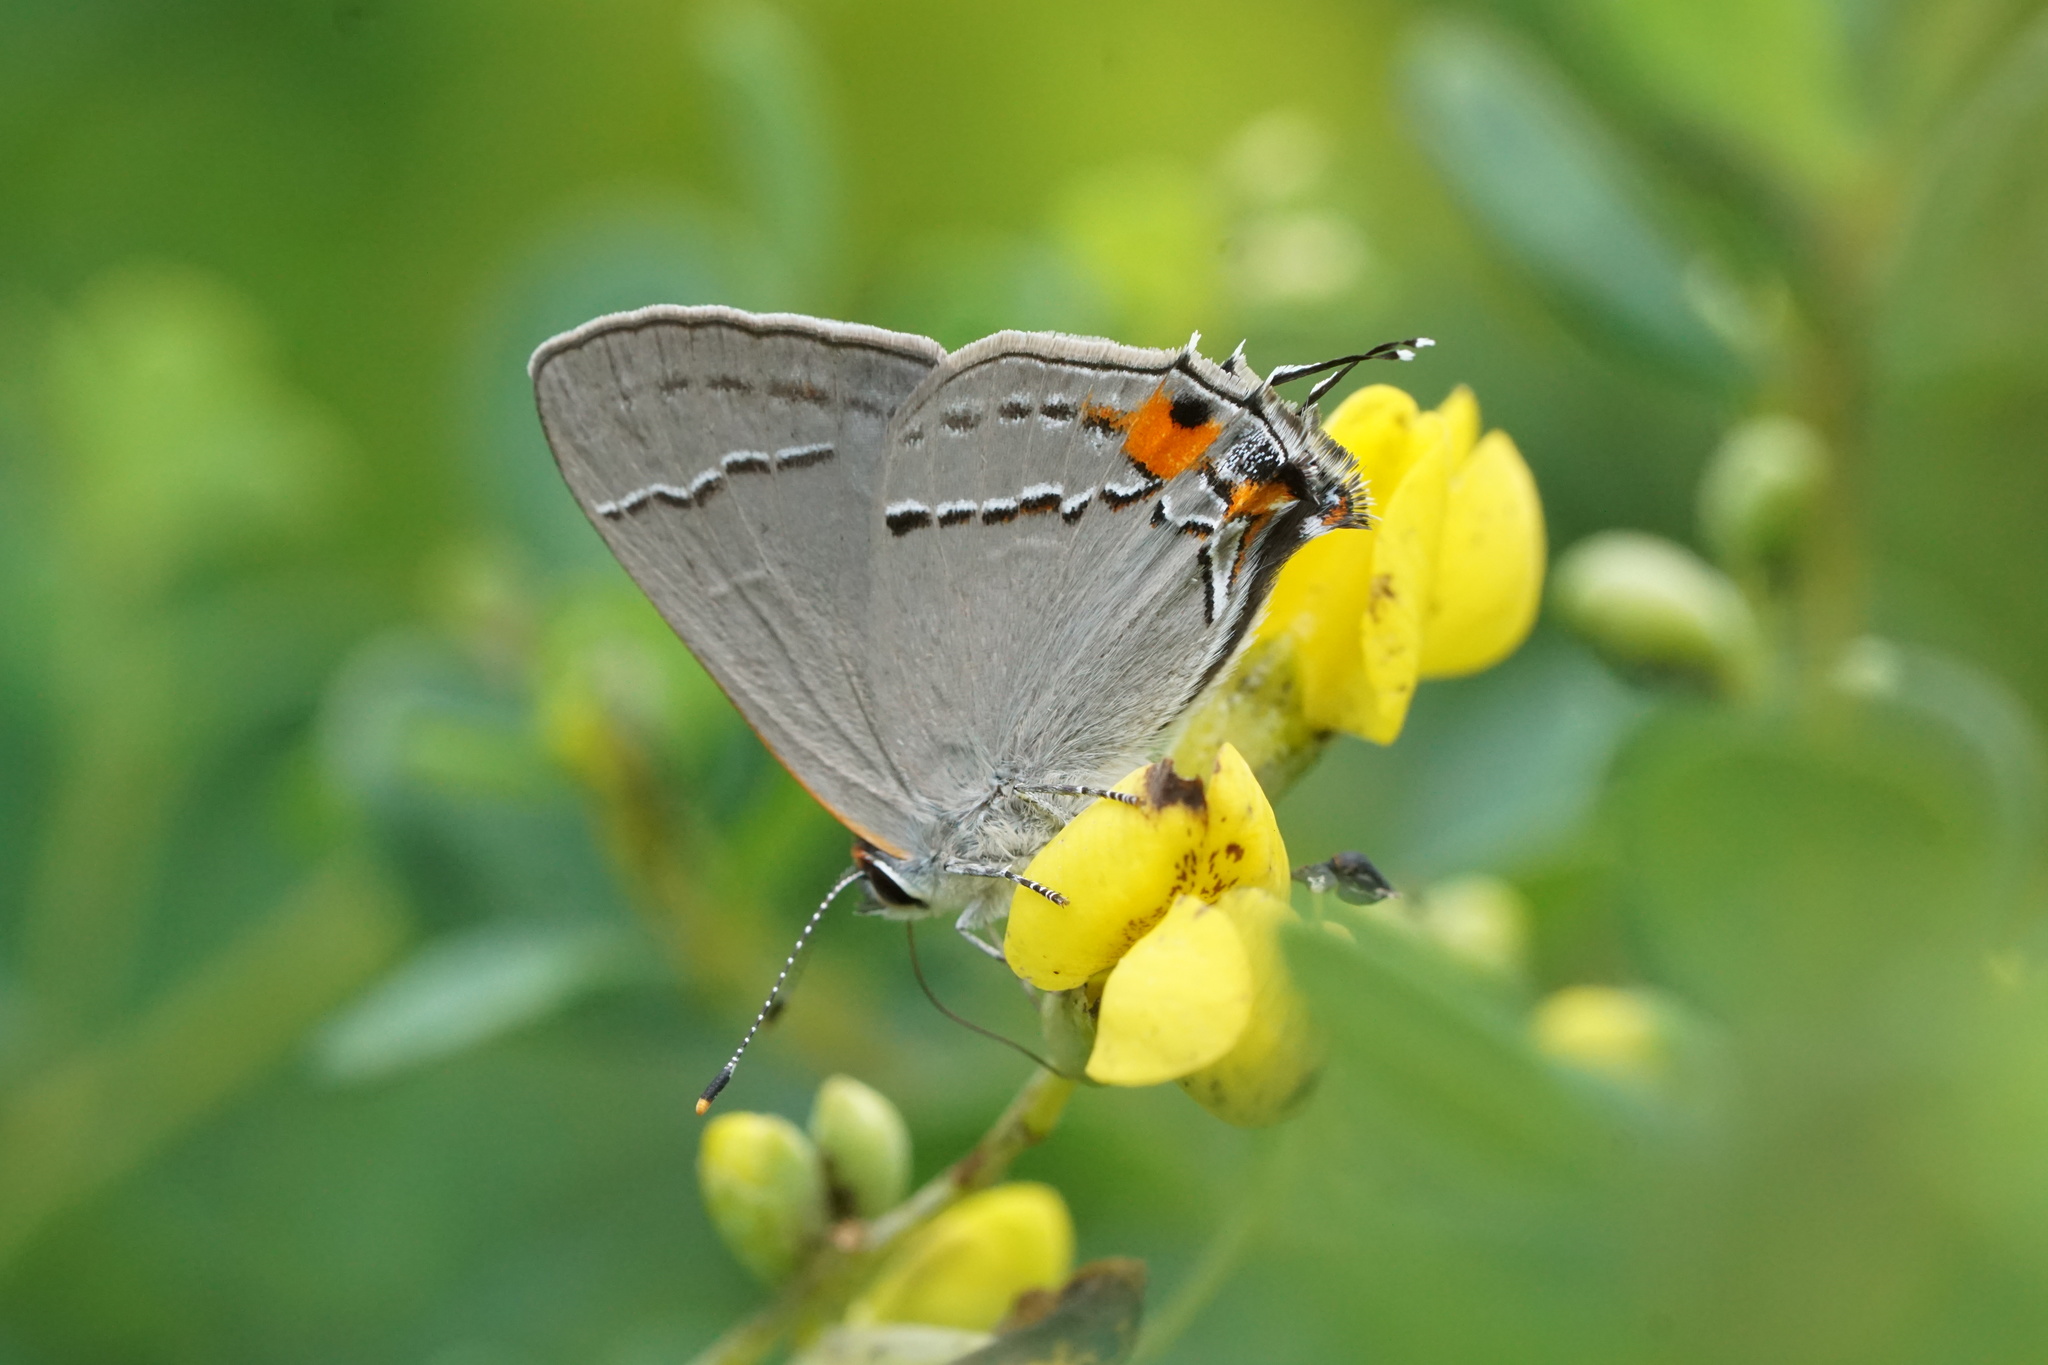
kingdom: Animalia
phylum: Arthropoda
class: Insecta
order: Lepidoptera
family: Lycaenidae
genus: Strymon
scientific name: Strymon melinus
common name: Gray hairstreak
